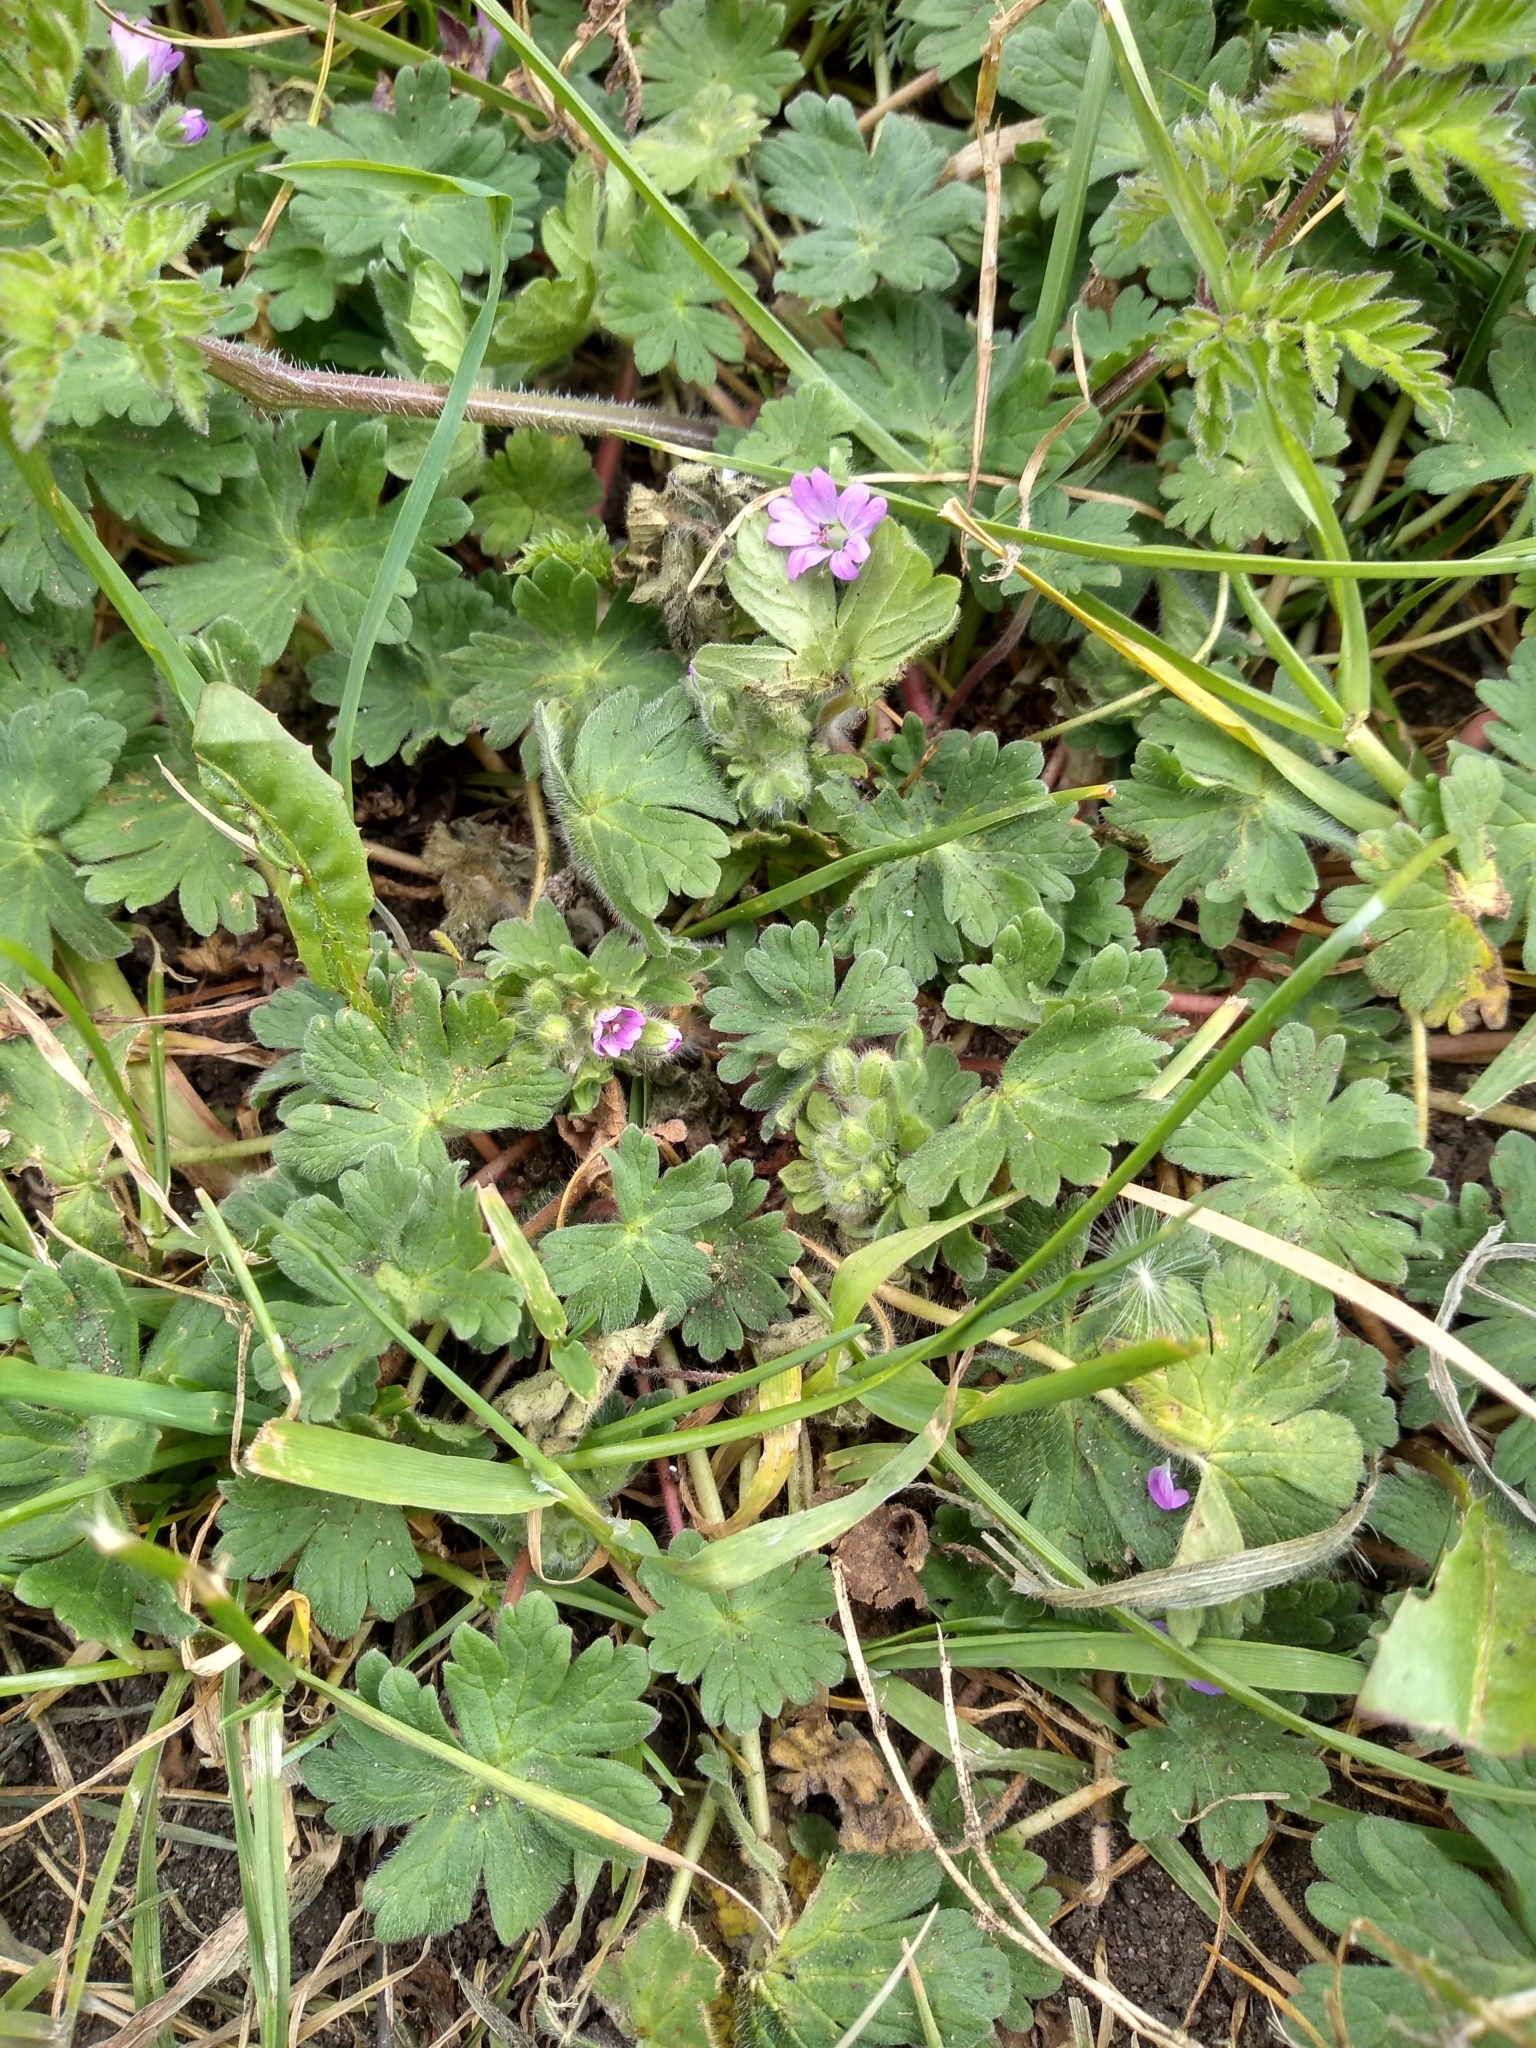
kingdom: Plantae
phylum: Tracheophyta
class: Magnoliopsida
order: Geraniales
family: Geraniaceae
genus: Geranium
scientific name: Geranium molle
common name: Dove's-foot crane's-bill
